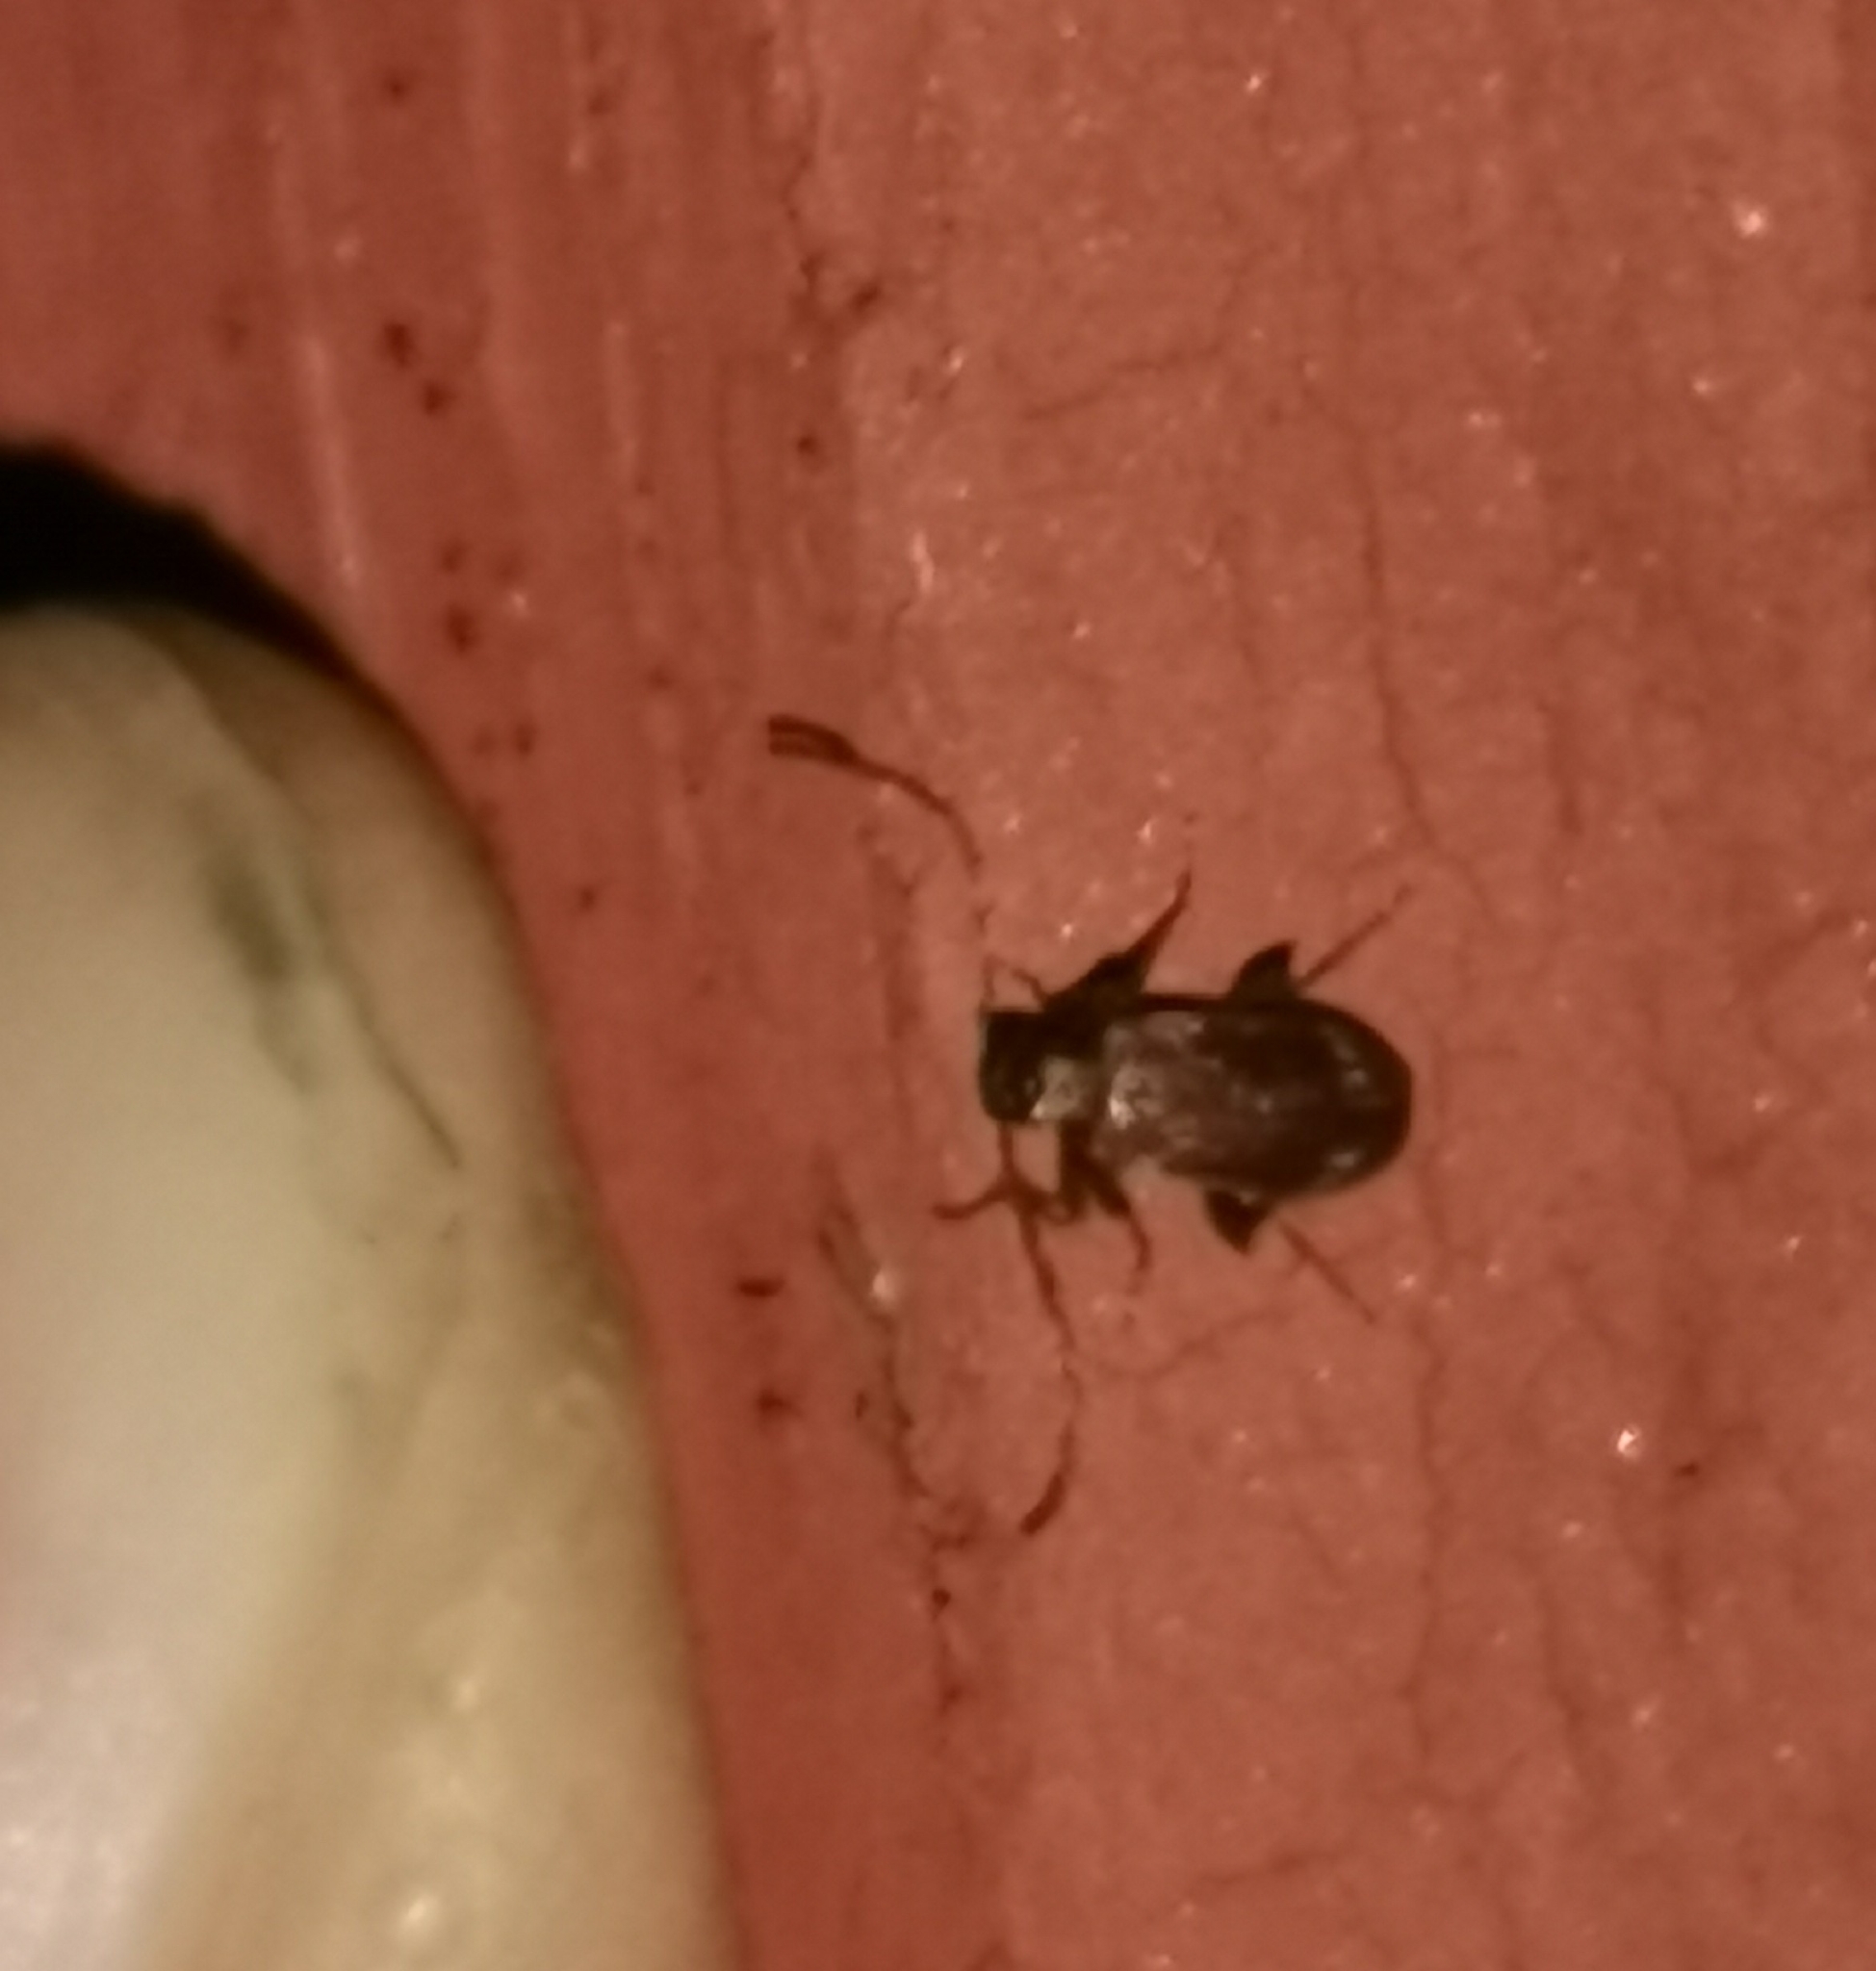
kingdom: Animalia
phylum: Arthropoda
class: Insecta
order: Coleoptera
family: Ptinidae
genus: Ptinus
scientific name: Ptinus raptor
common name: Eastern spider beetle
